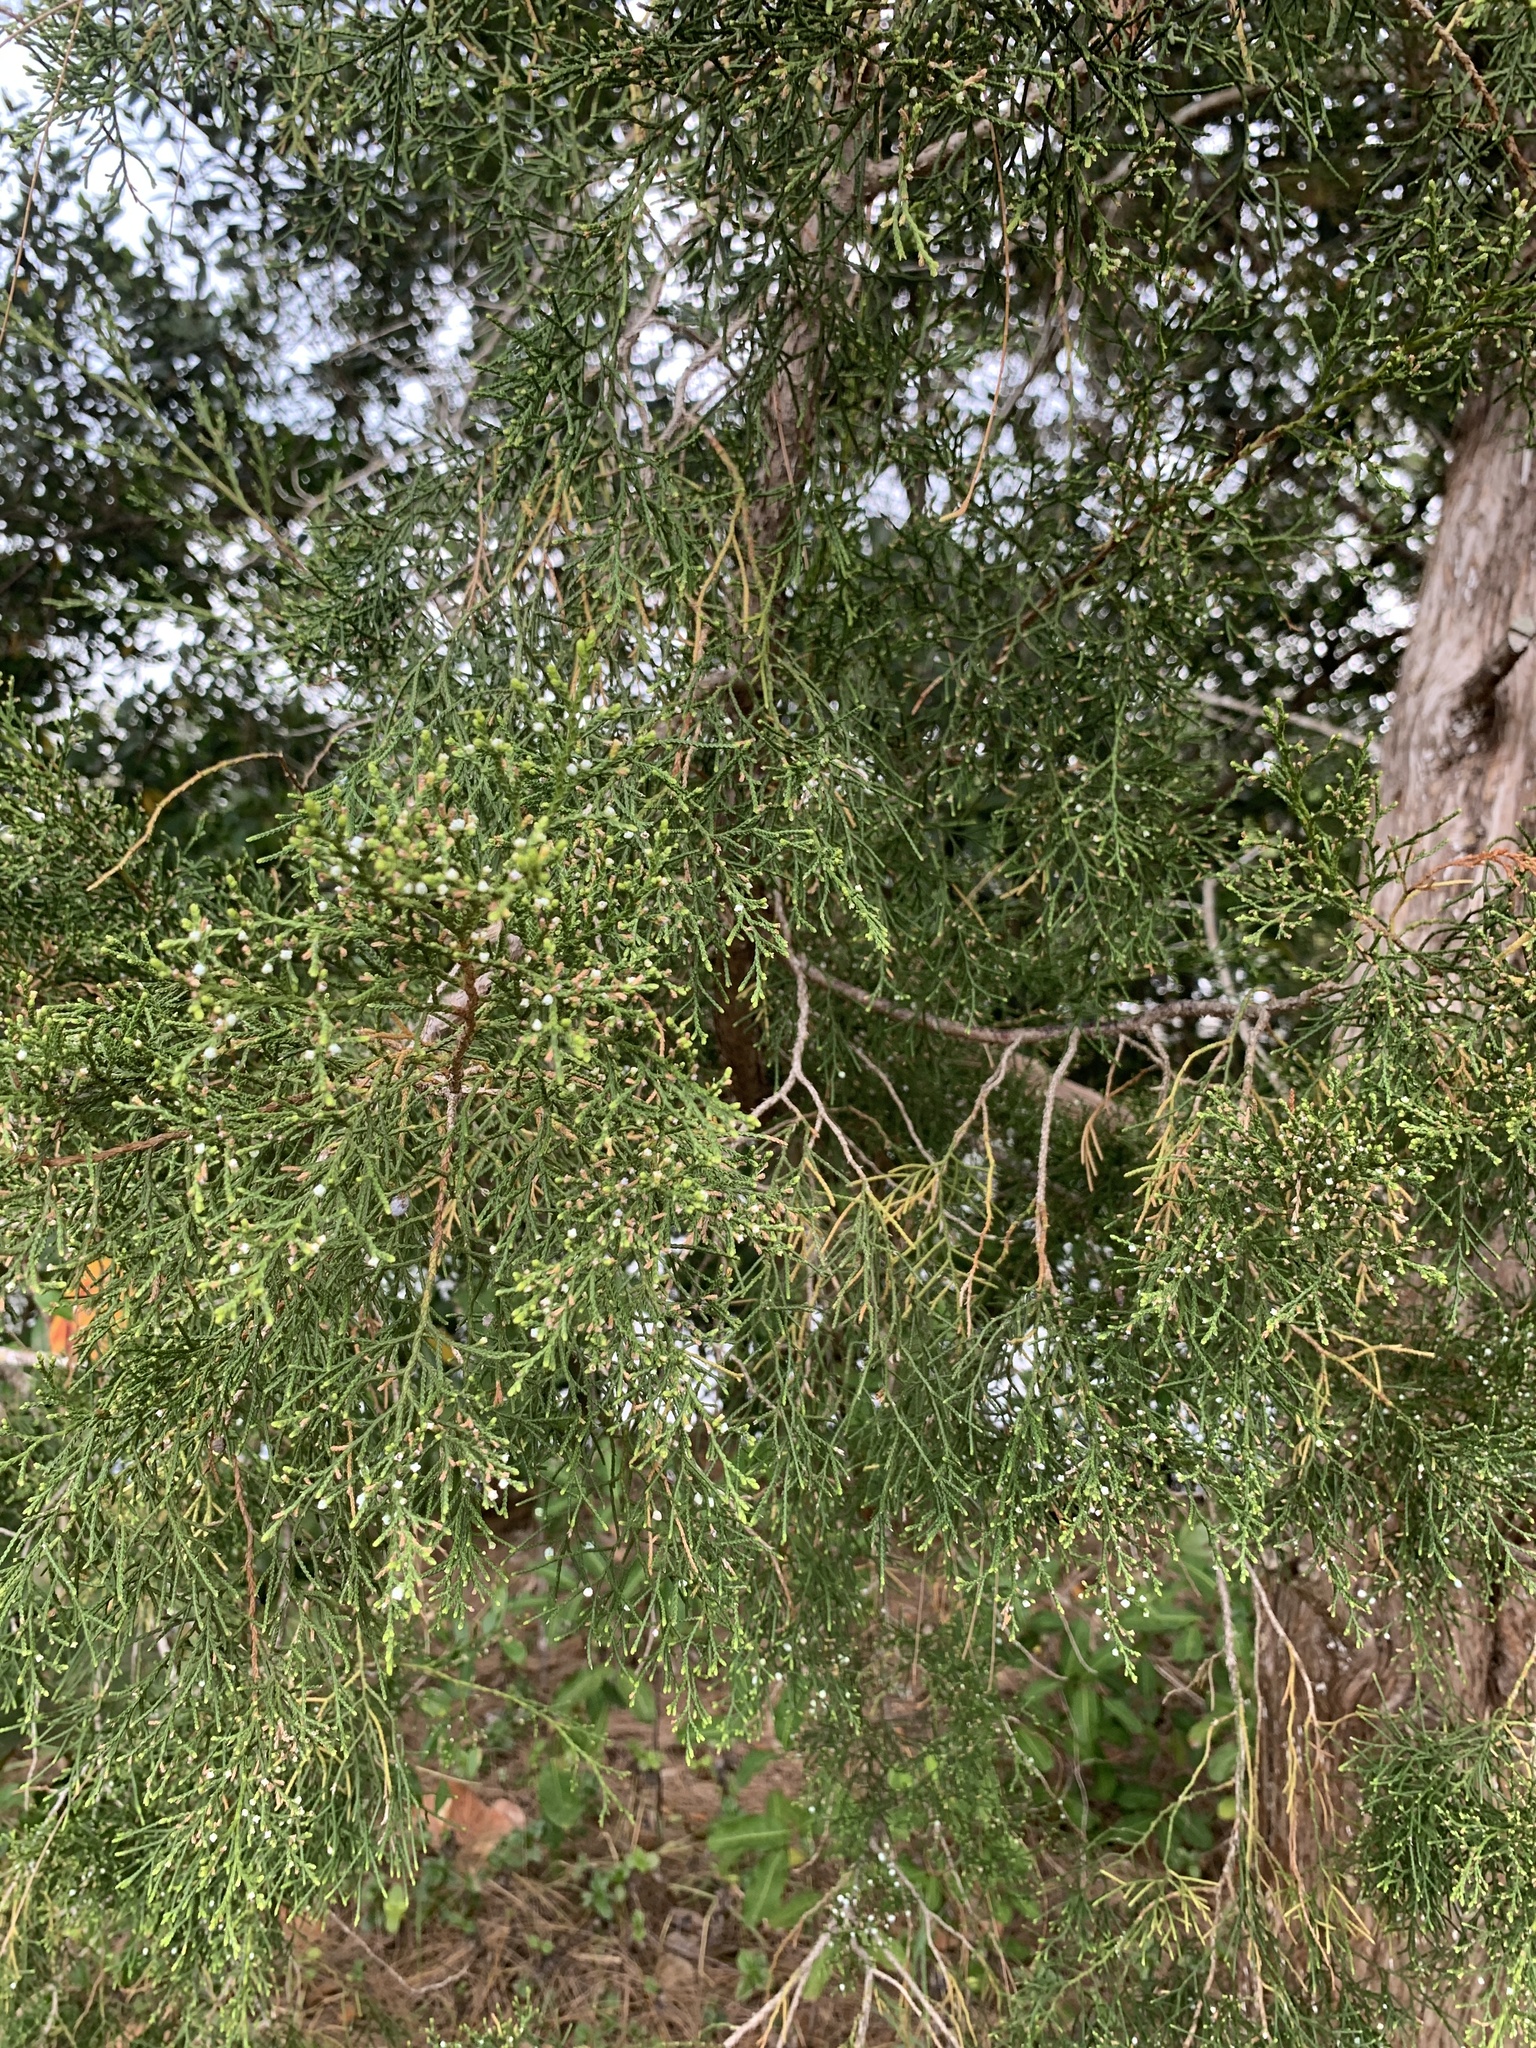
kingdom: Plantae
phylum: Tracheophyta
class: Pinopsida
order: Pinales
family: Cupressaceae
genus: Juniperus
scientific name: Juniperus virginiana
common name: Red juniper
